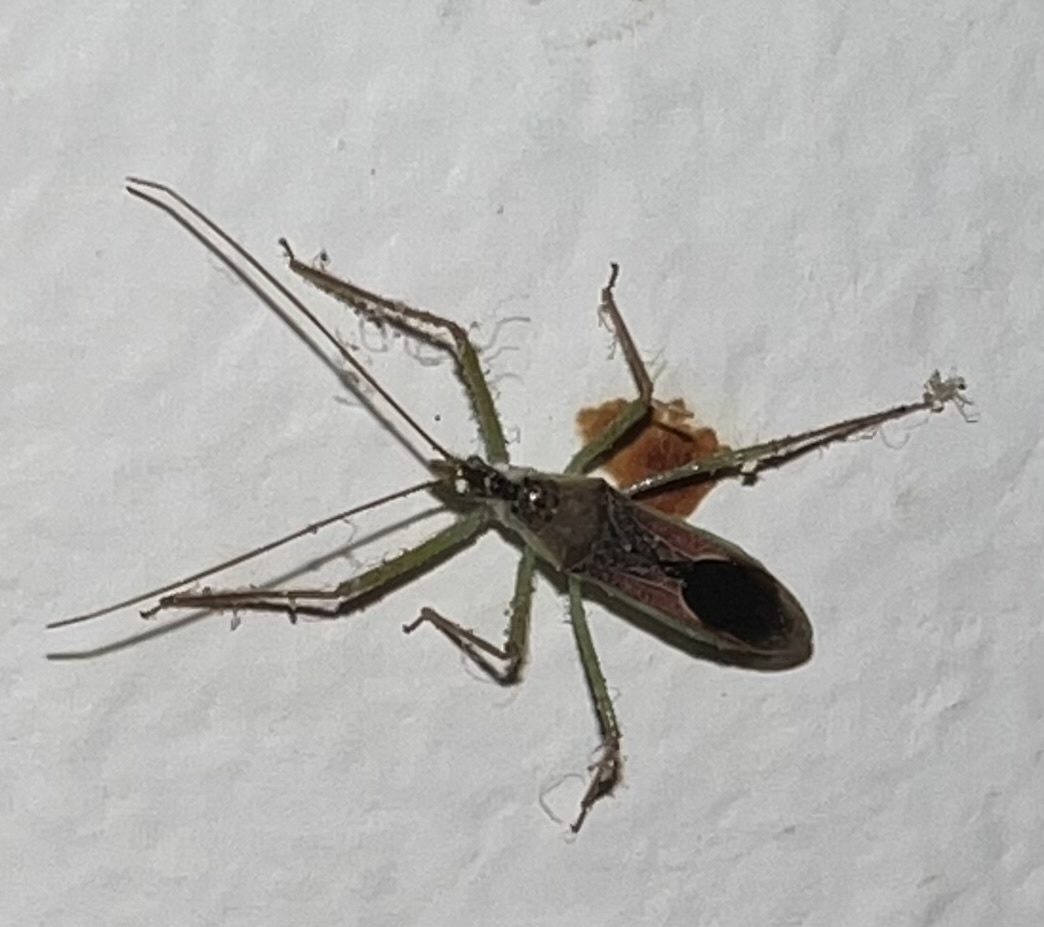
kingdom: Animalia
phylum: Arthropoda
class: Insecta
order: Hemiptera
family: Reduviidae
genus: Zelus
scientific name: Zelus renardii
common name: Assassin bug
